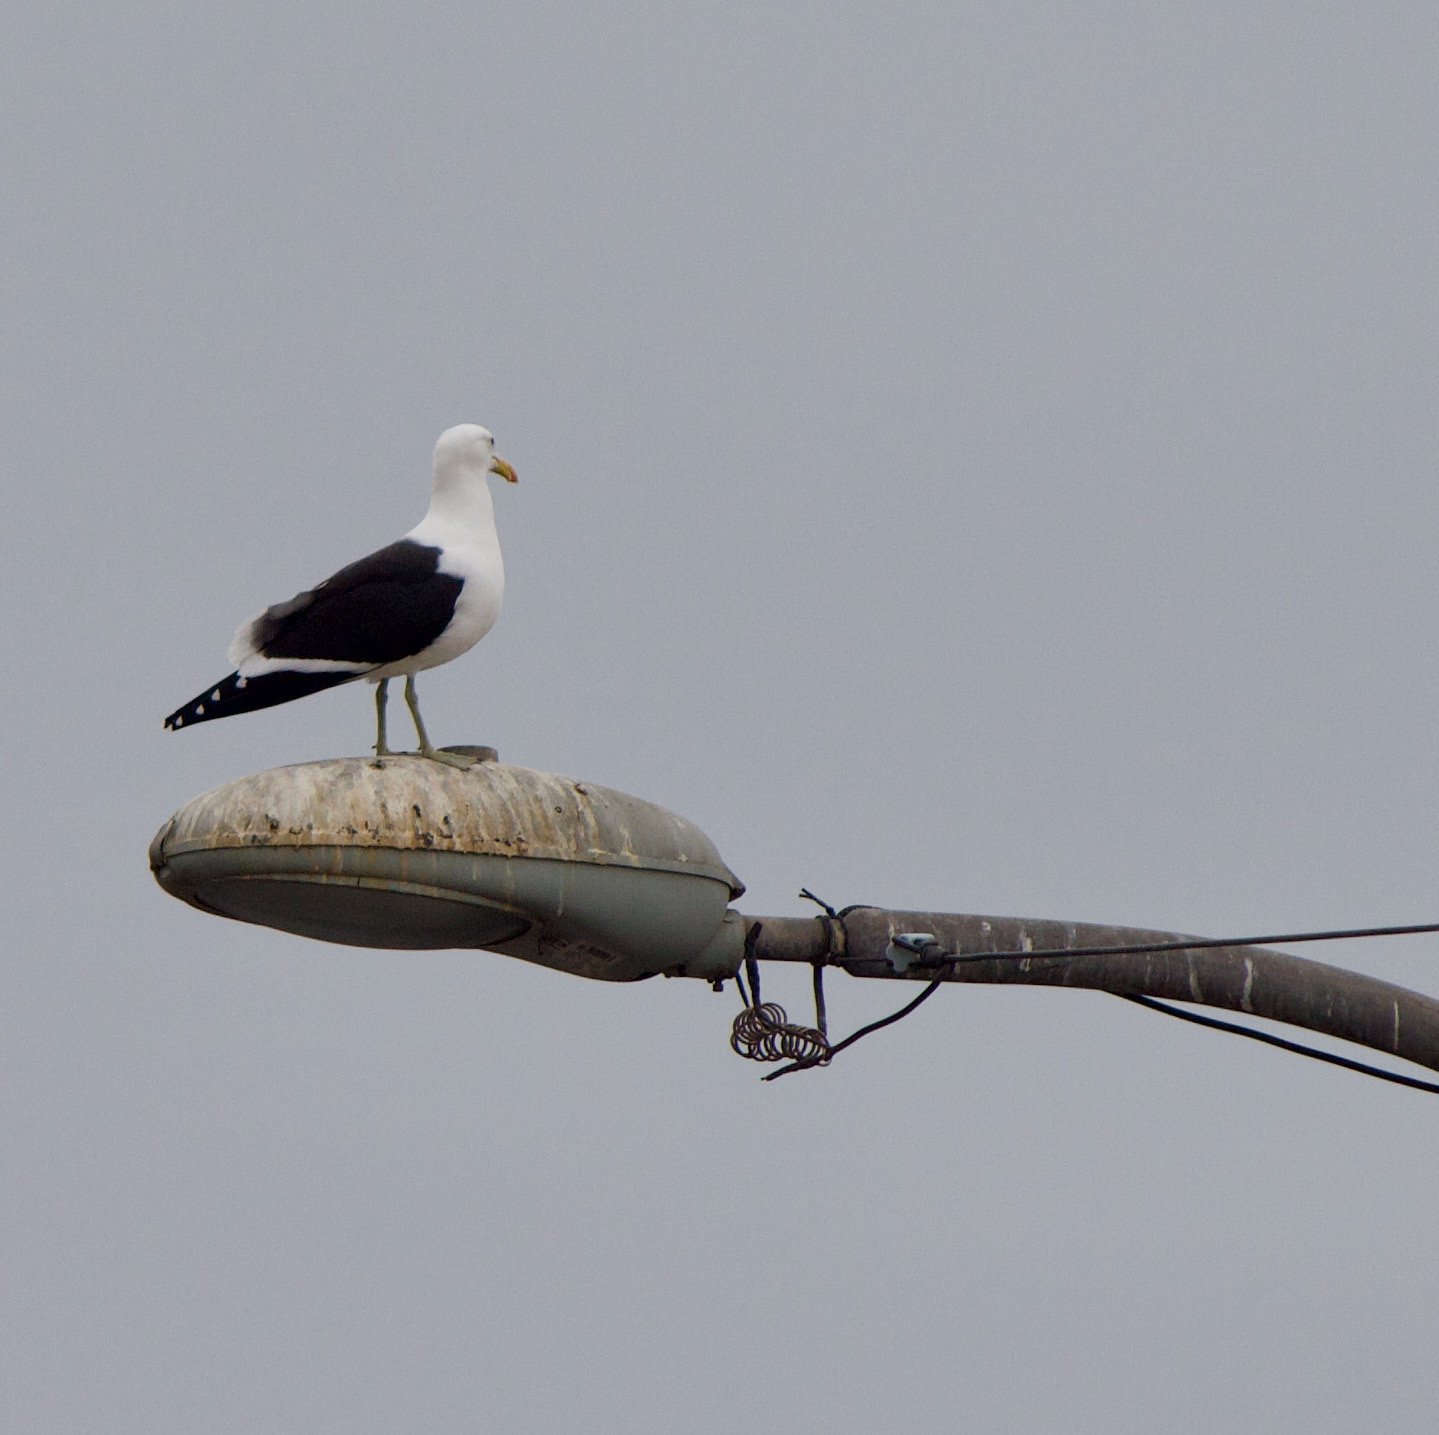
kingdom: Animalia
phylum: Chordata
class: Aves
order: Charadriiformes
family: Laridae
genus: Larus
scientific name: Larus dominicanus
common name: Kelp gull
